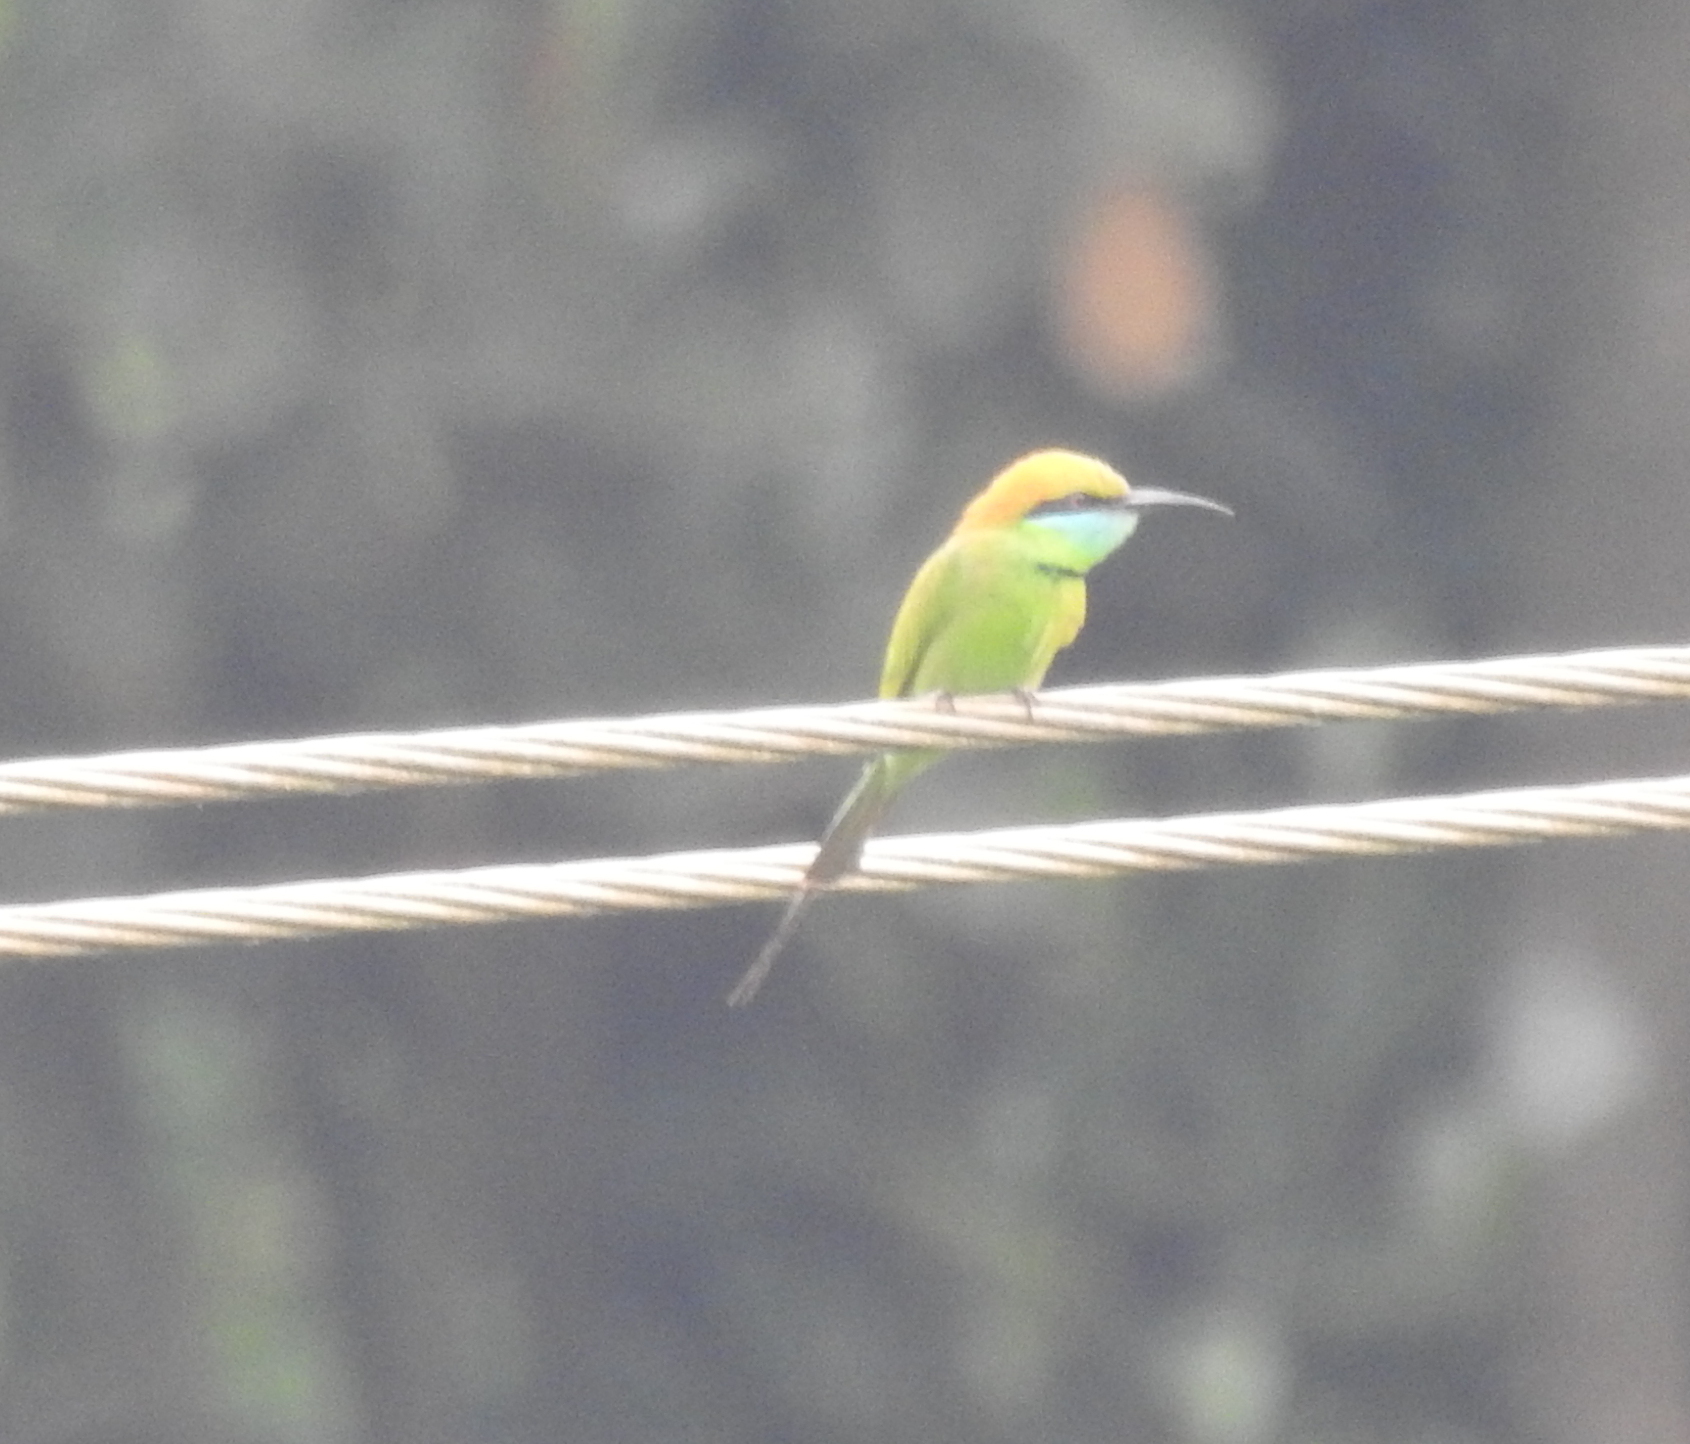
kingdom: Animalia
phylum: Chordata
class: Aves
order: Coraciiformes
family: Meropidae
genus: Merops
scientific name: Merops orientalis
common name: Green bee-eater
